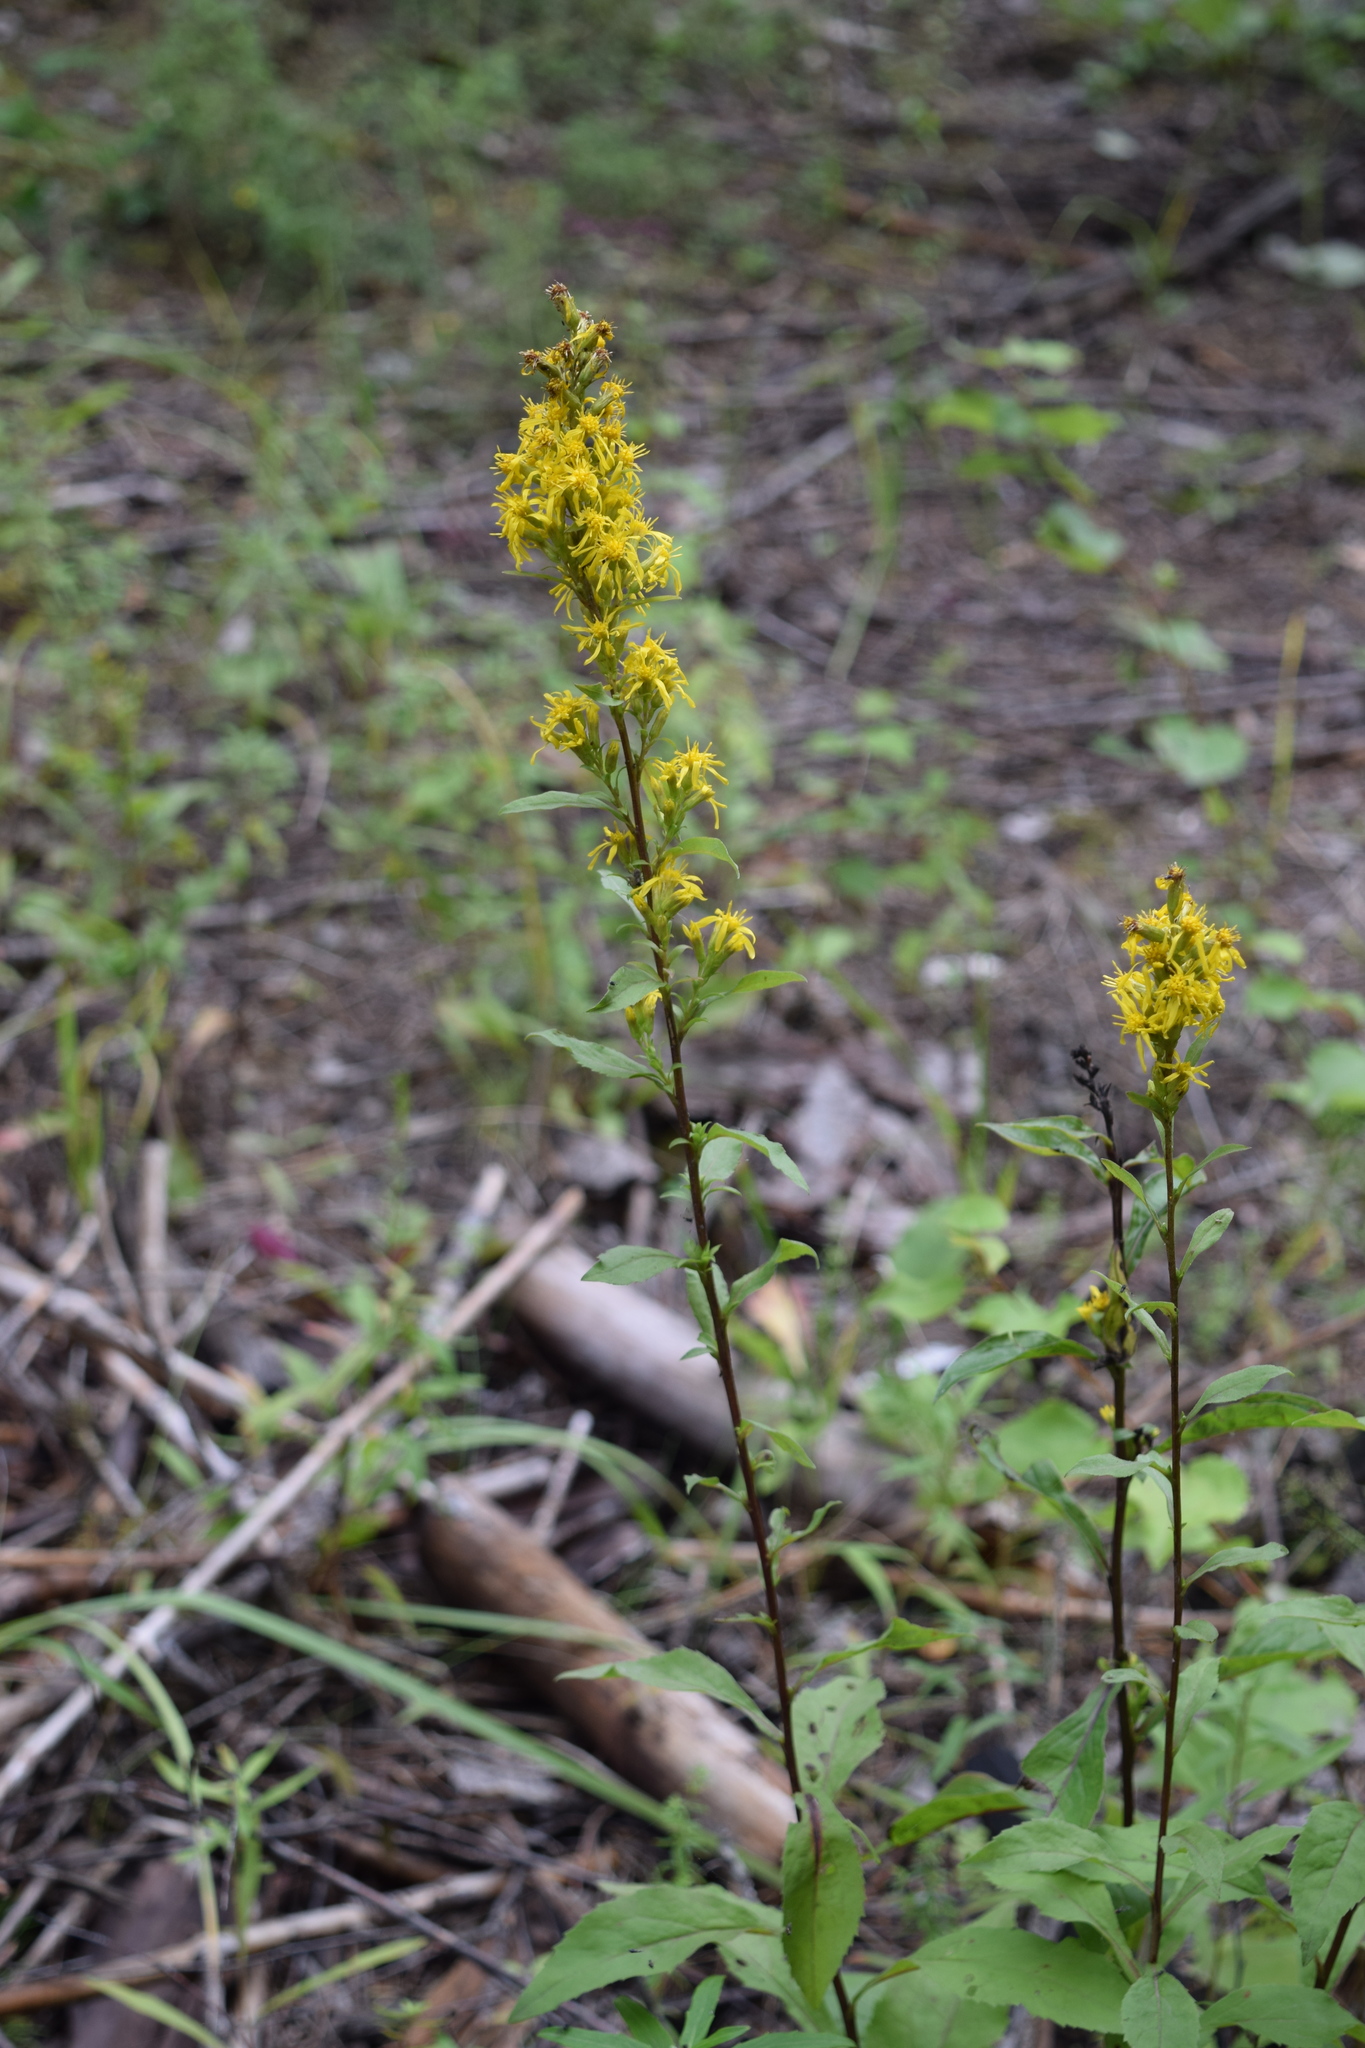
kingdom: Plantae
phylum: Tracheophyta
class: Magnoliopsida
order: Asterales
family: Asteraceae
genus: Solidago
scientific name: Solidago virgaurea
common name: Goldenrod
